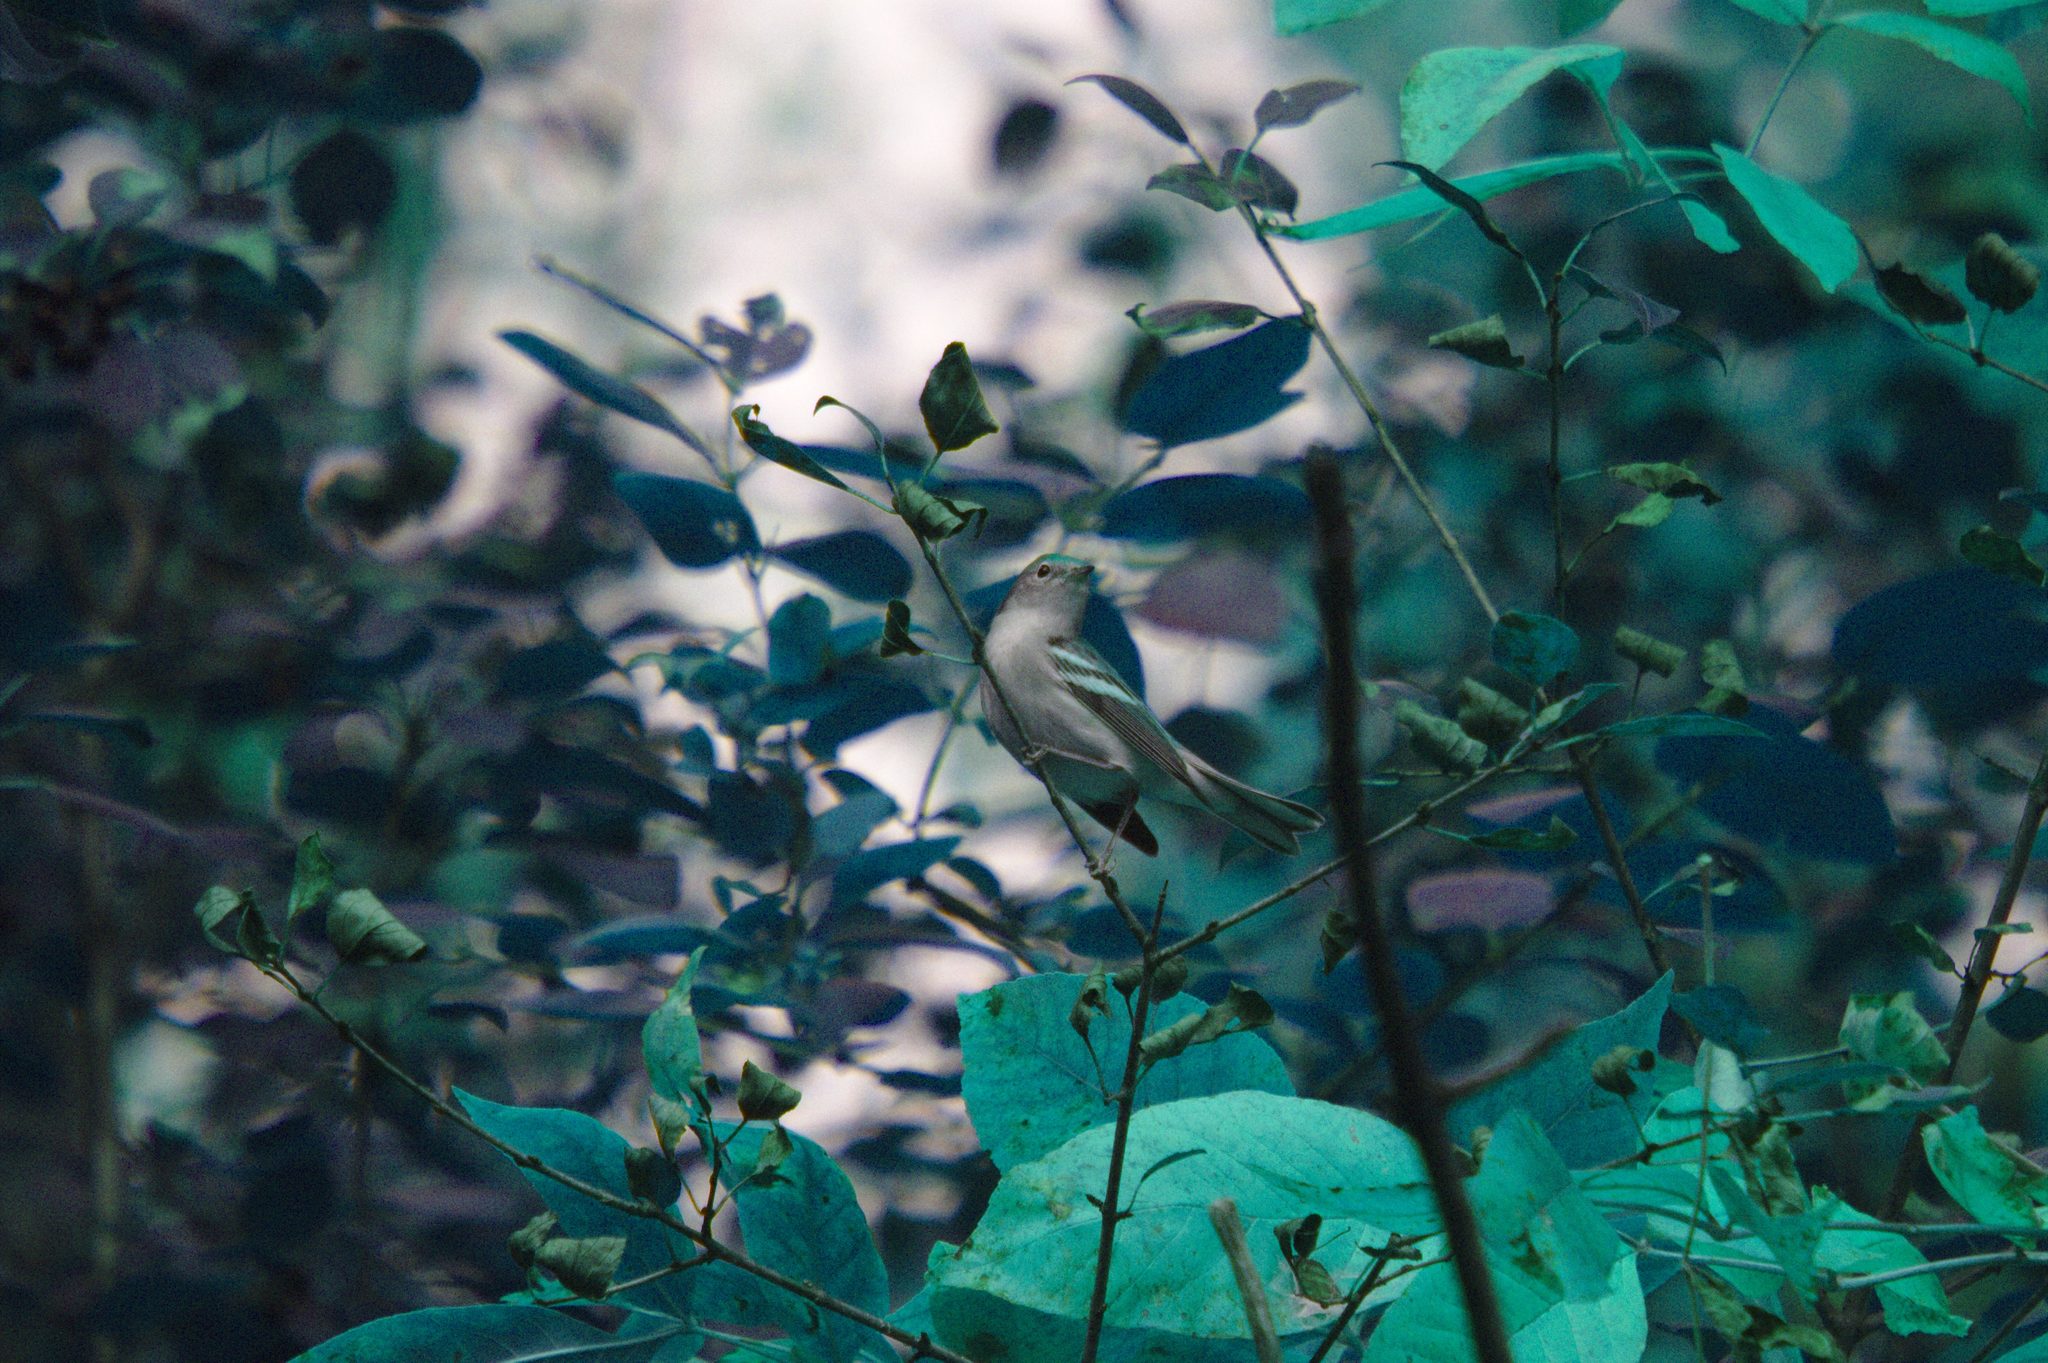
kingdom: Animalia
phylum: Chordata
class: Aves
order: Passeriformes
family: Parulidae
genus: Setophaga
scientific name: Setophaga pensylvanica
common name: Chestnut-sided warbler
